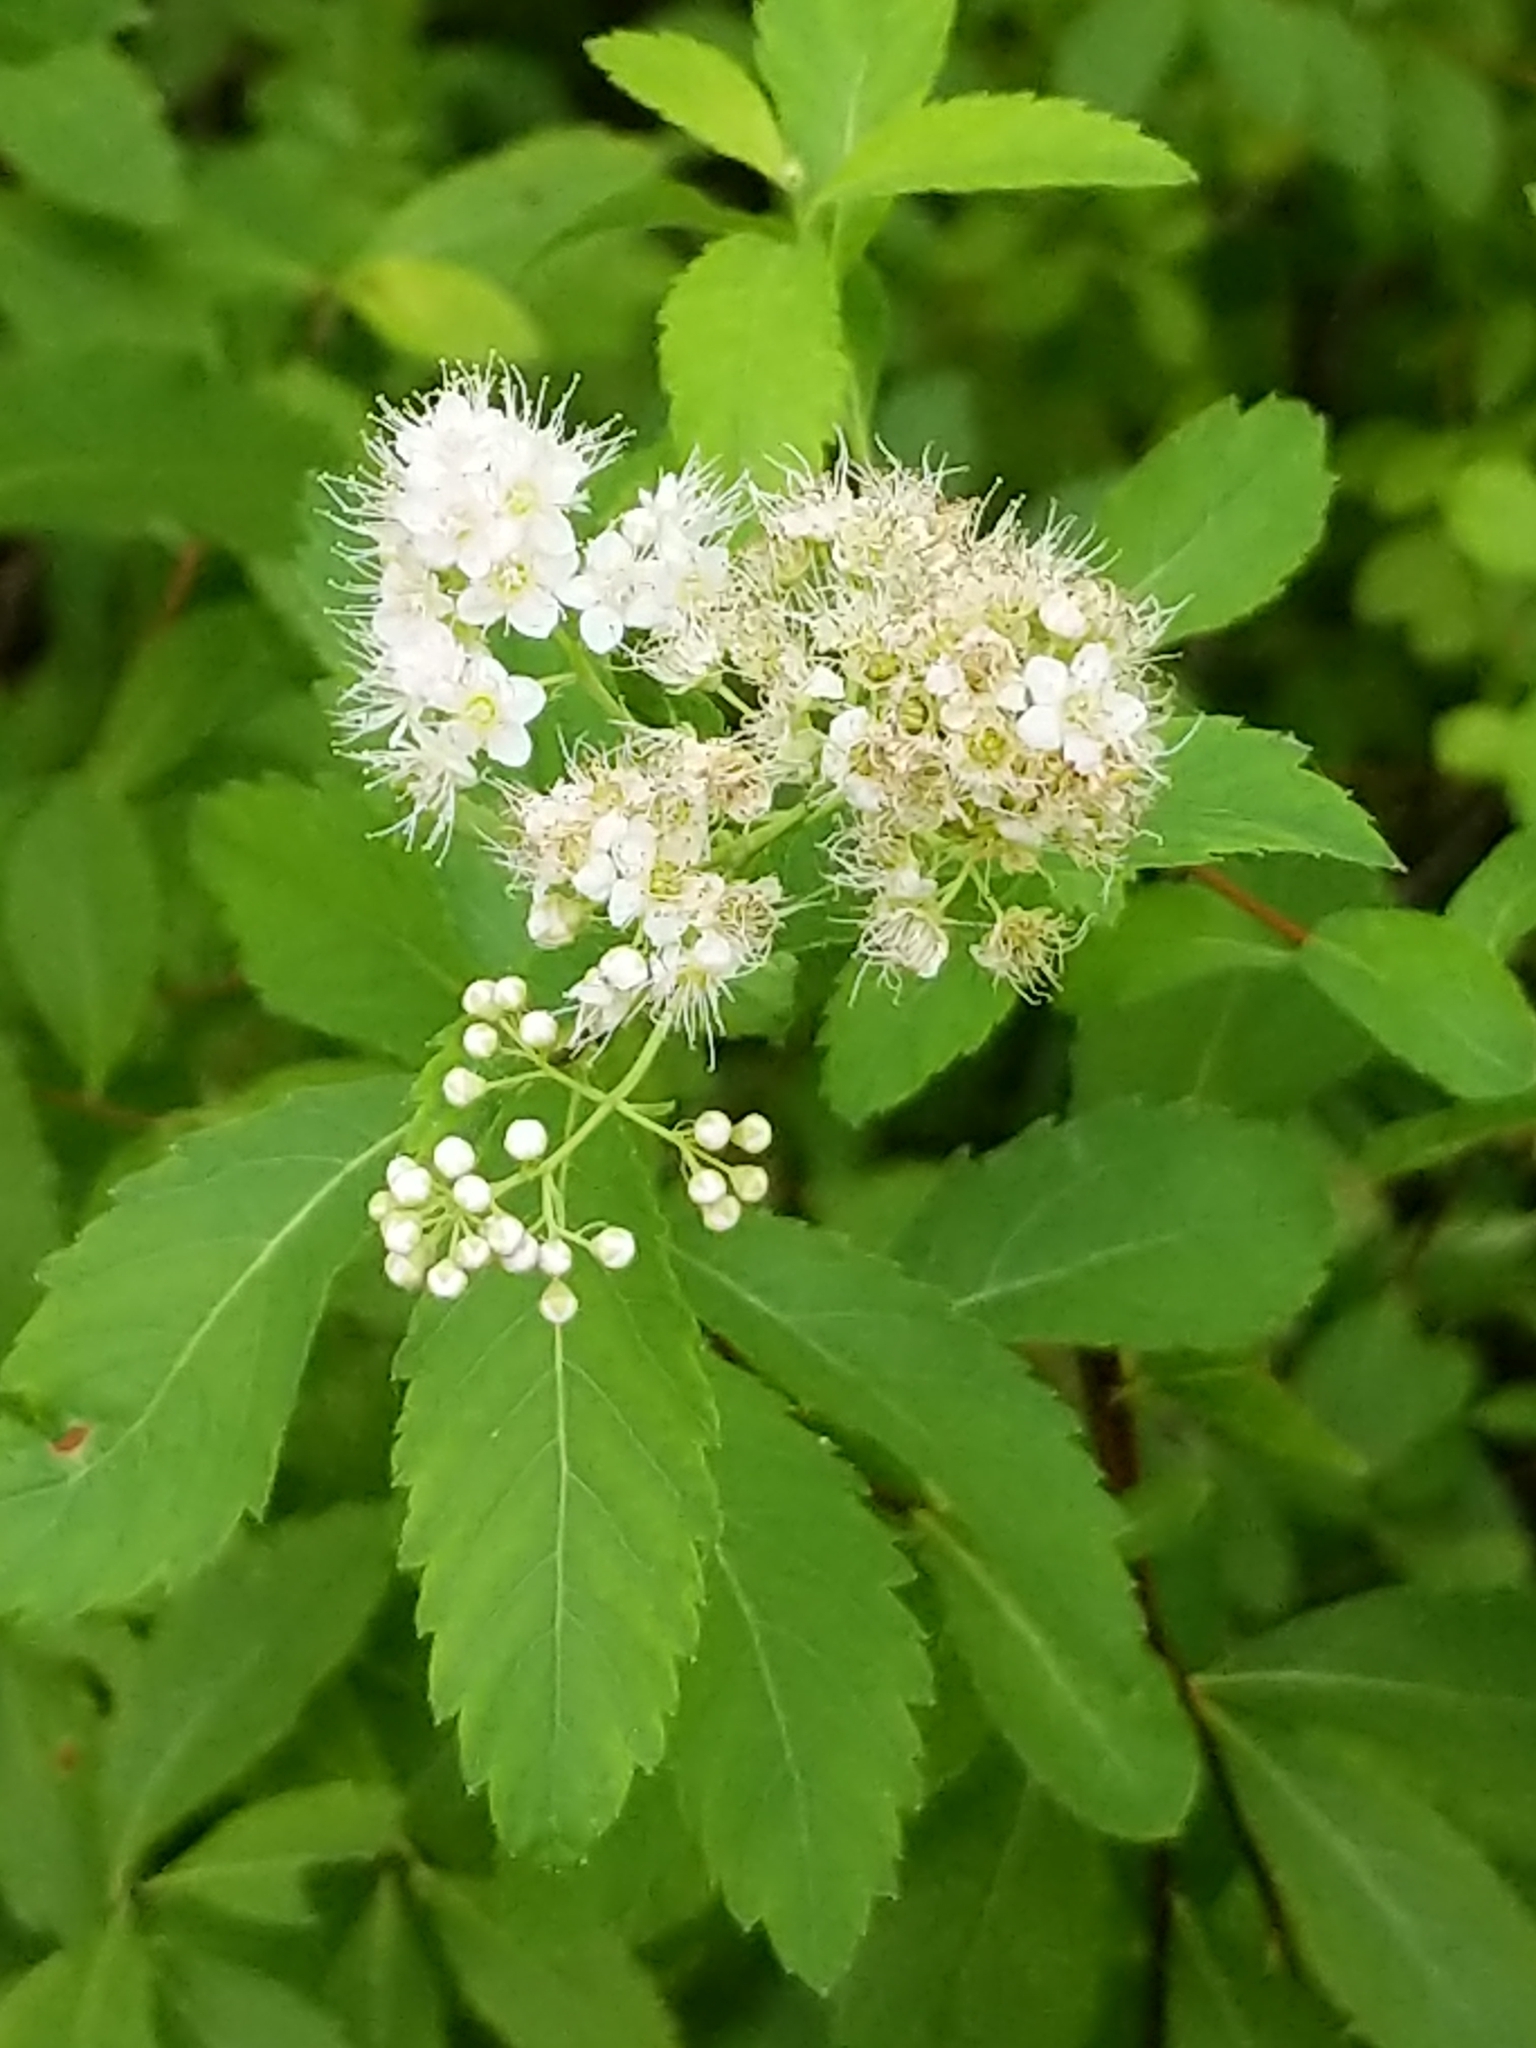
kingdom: Plantae
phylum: Tracheophyta
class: Magnoliopsida
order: Rosales
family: Rosaceae
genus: Spiraea
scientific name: Spiraea alba
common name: Pale bridewort
